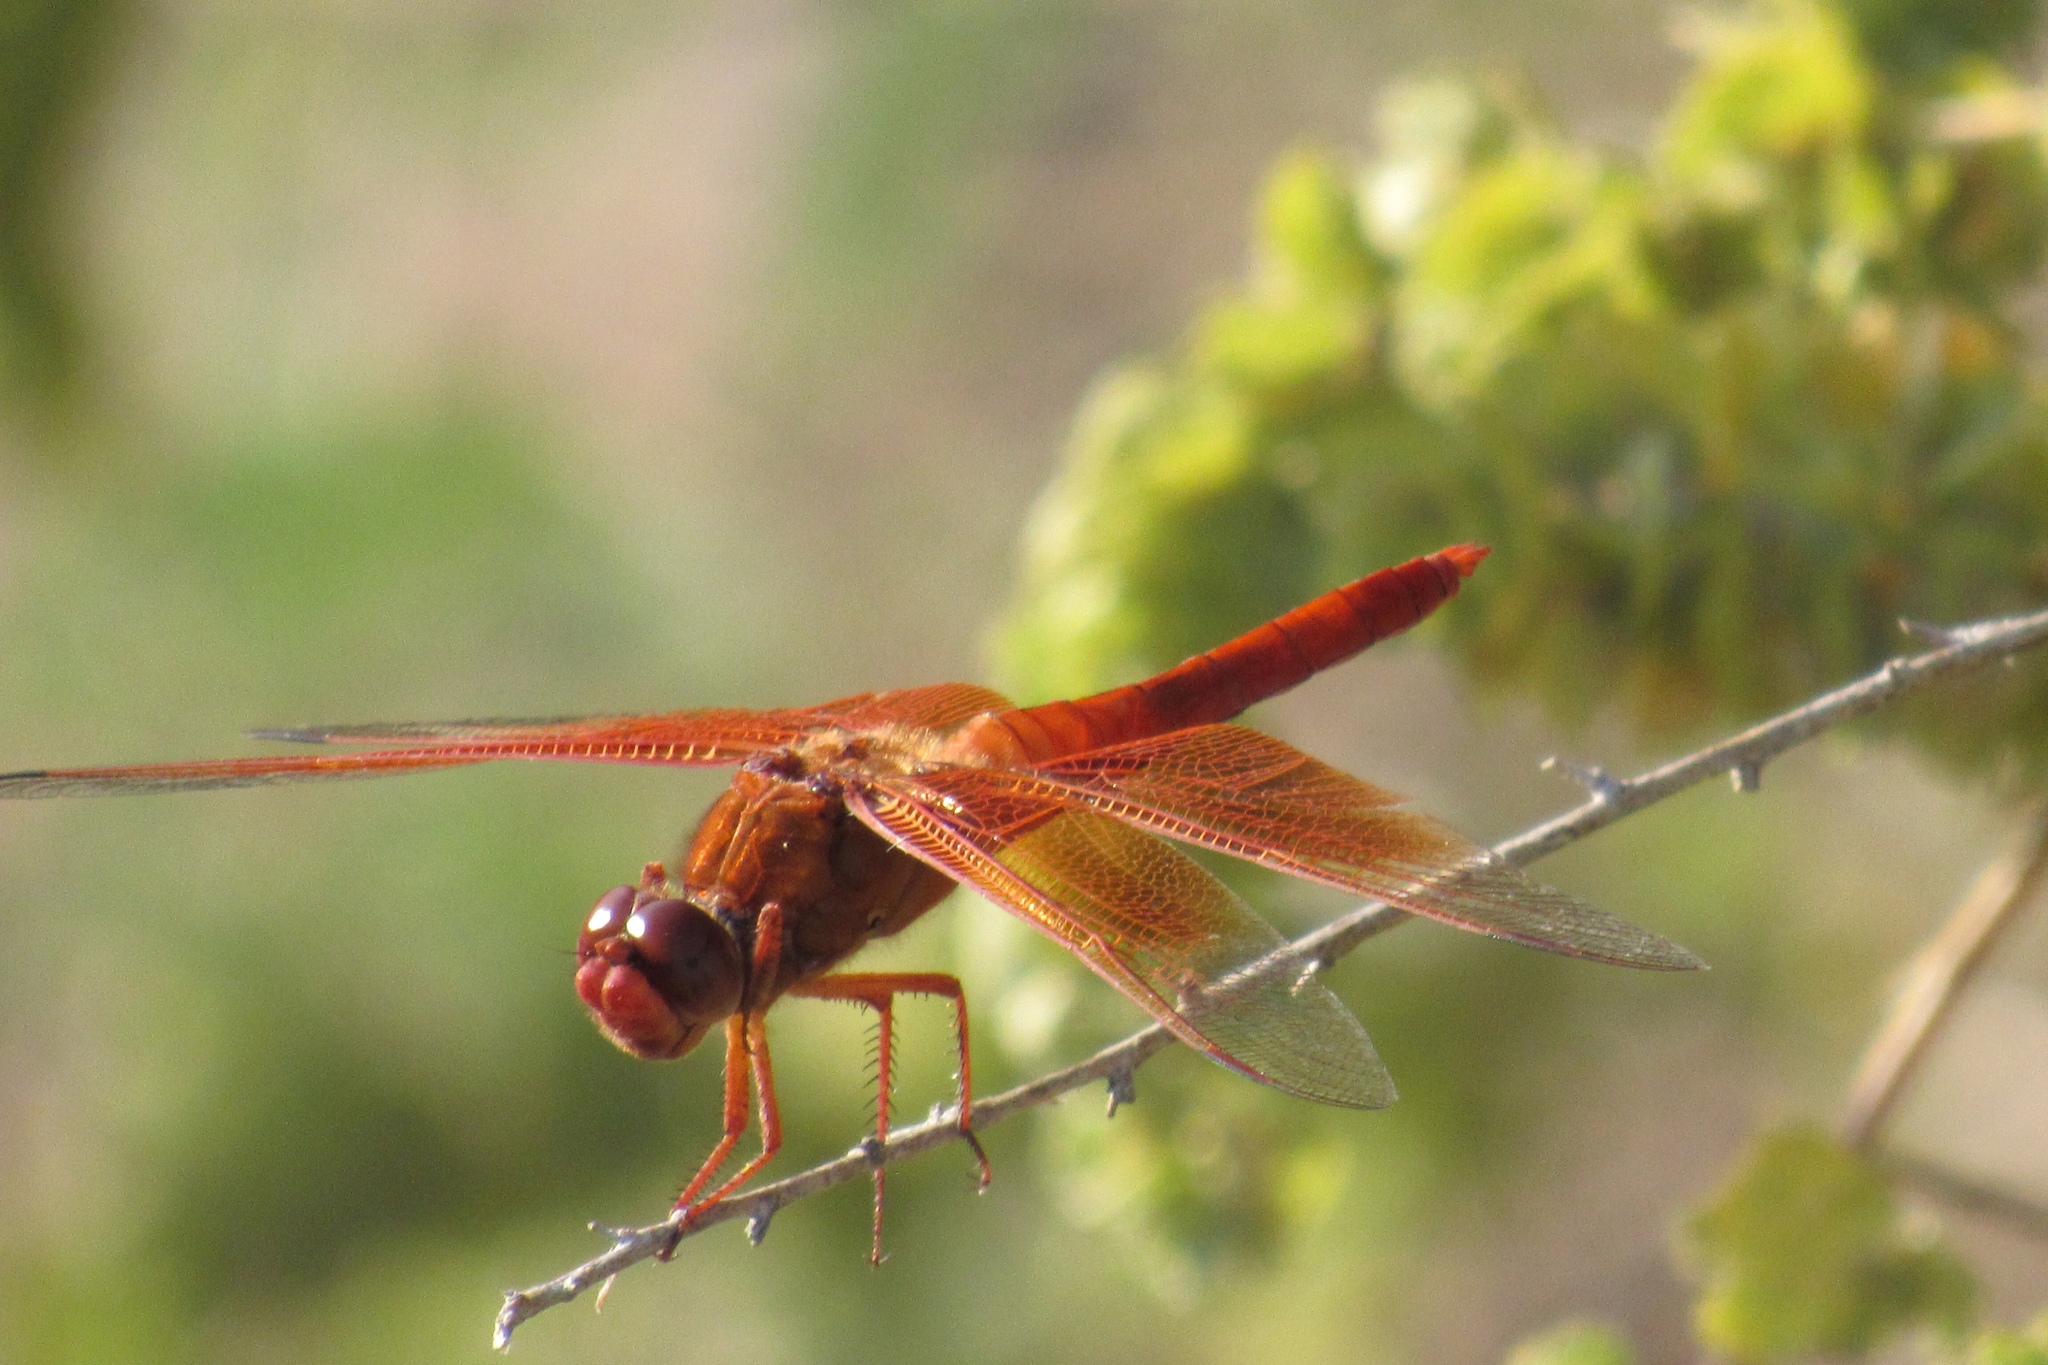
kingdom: Animalia
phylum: Arthropoda
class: Insecta
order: Odonata
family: Libellulidae
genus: Libellula
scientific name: Libellula saturata
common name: Flame skimmer
